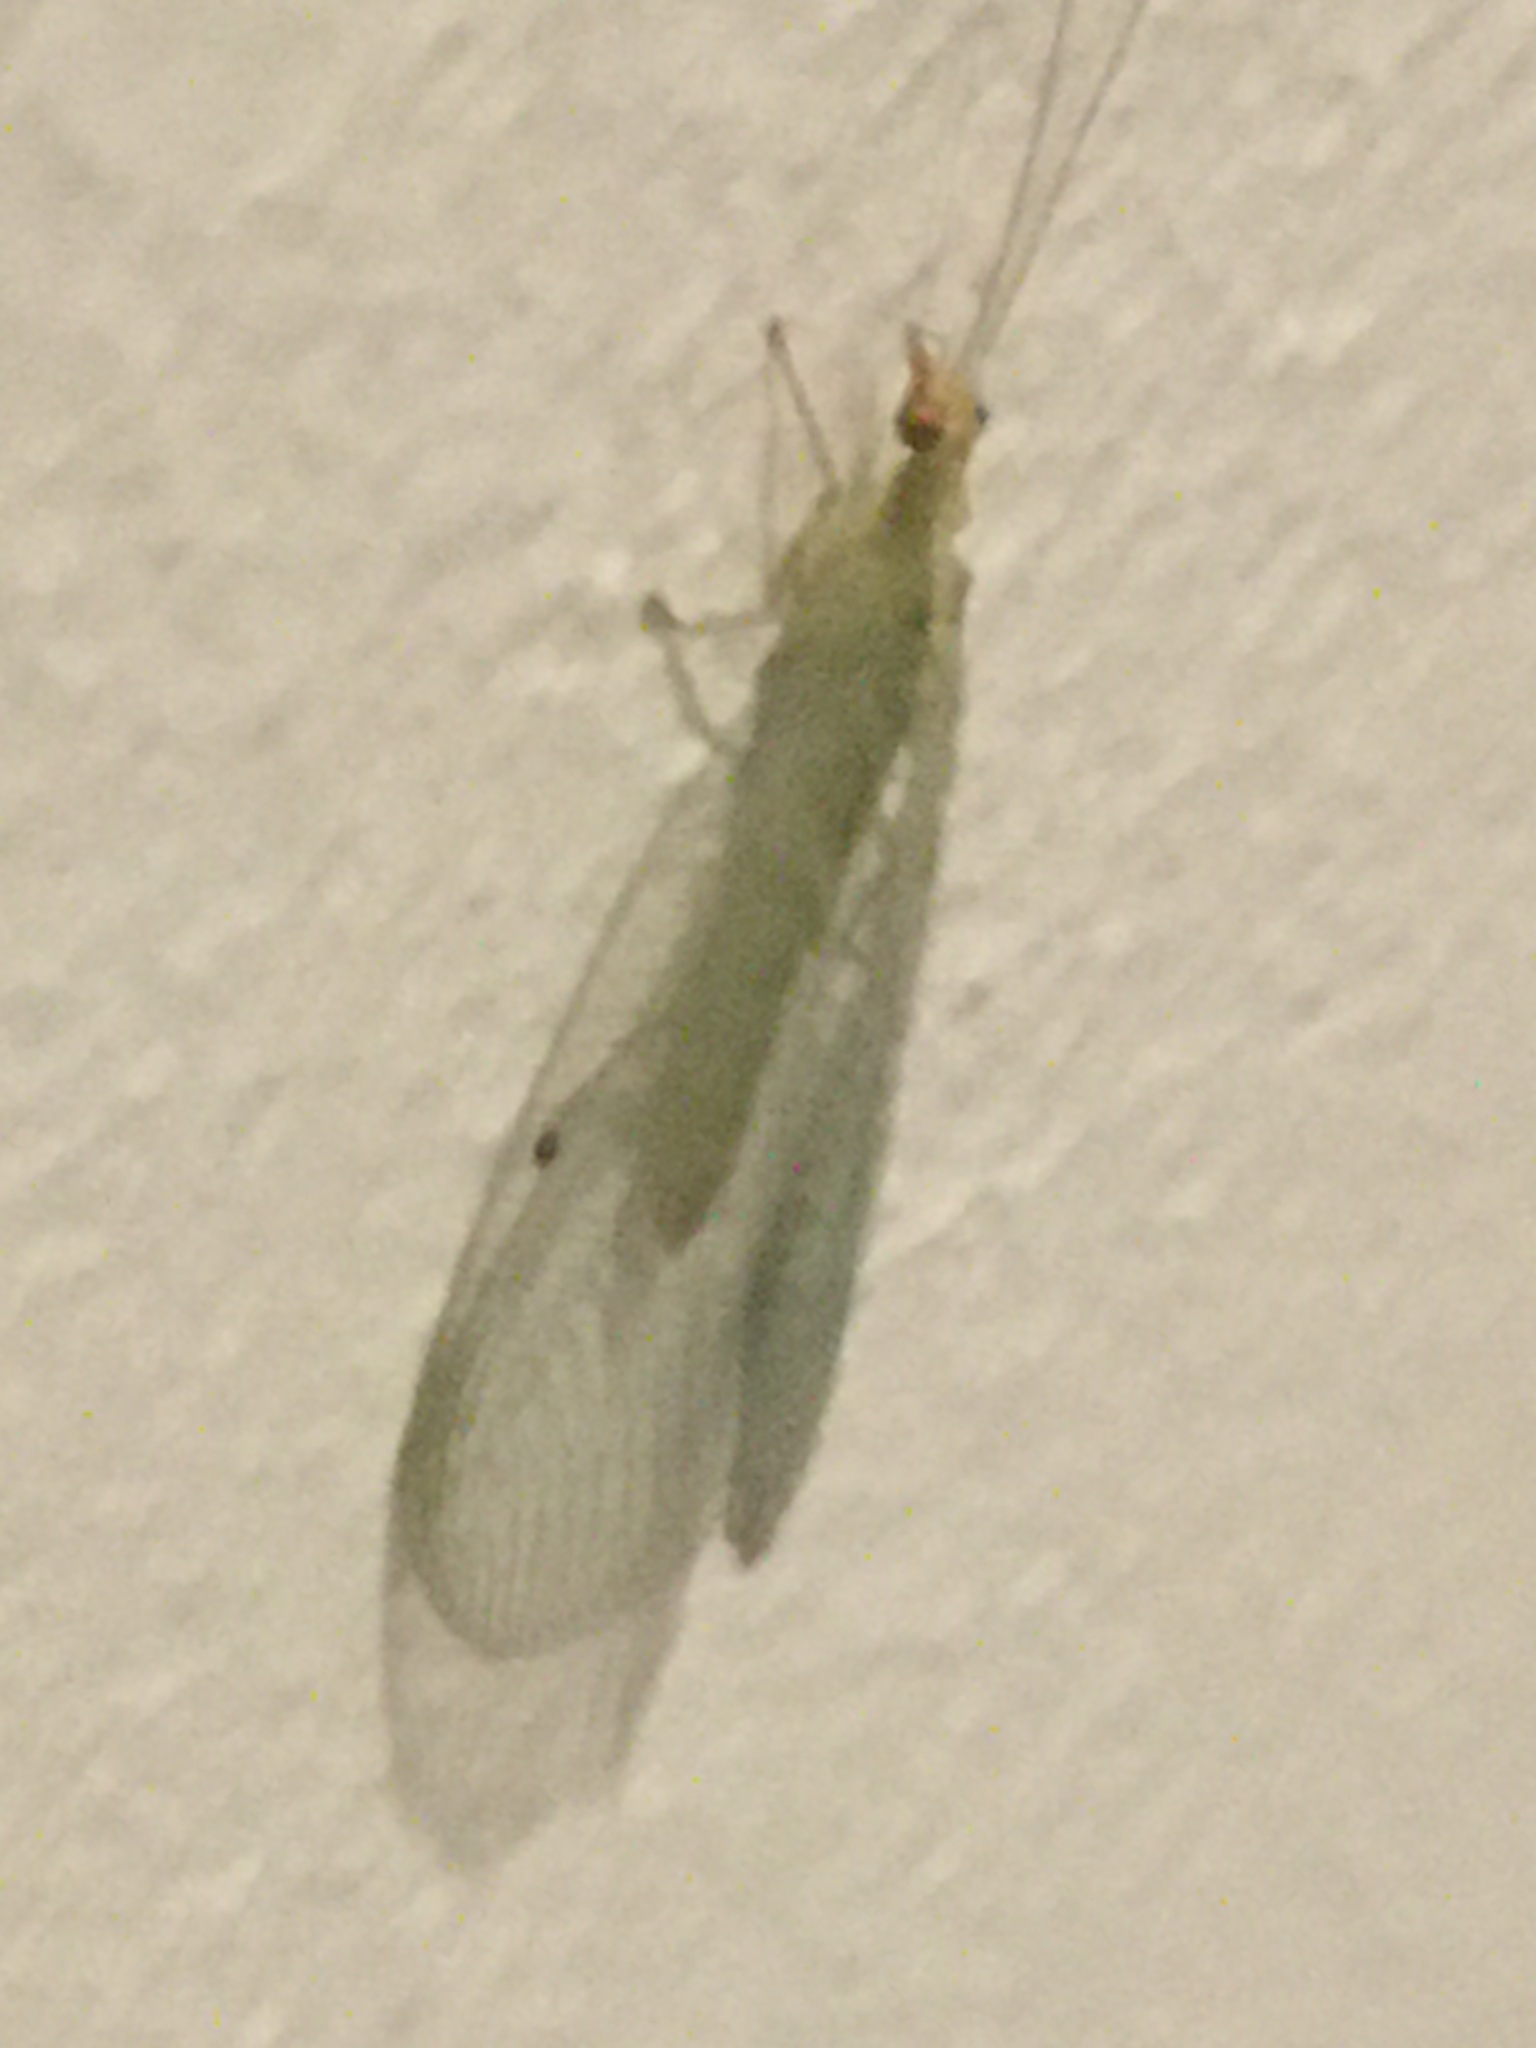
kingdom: Animalia
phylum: Arthropoda
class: Insecta
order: Neuroptera
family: Chrysopidae
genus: Chrysoperla
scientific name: Chrysoperla
